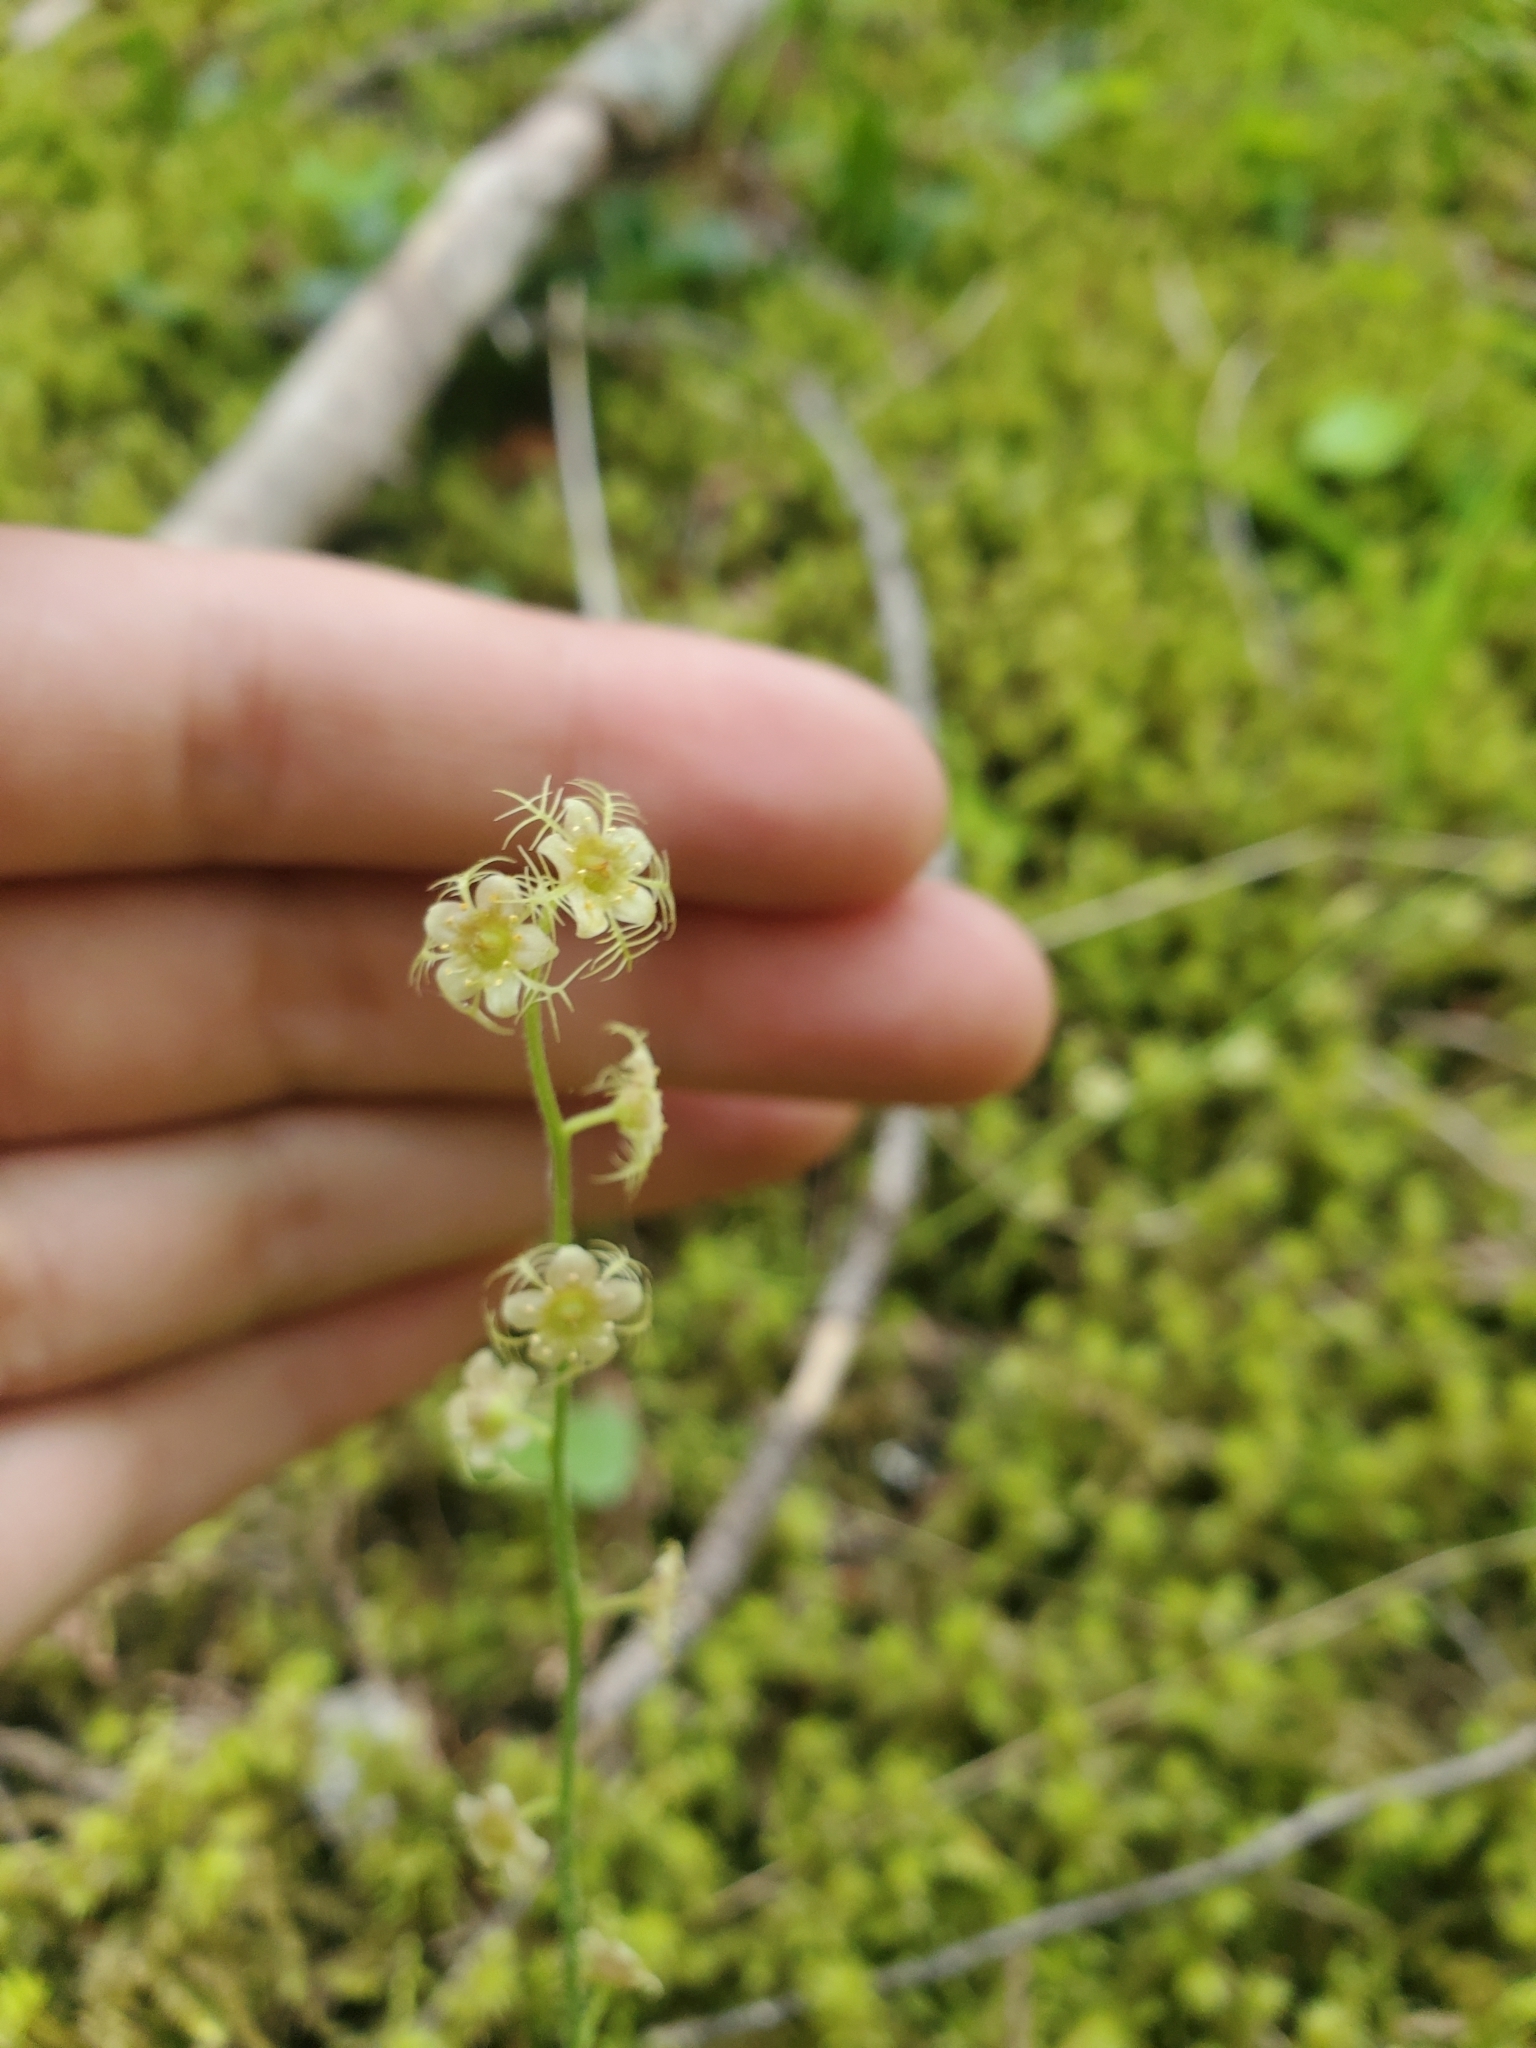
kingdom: Plantae
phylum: Tracheophyta
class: Magnoliopsida
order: Saxifragales
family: Saxifragaceae
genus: Mitella
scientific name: Mitella nuda
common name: Bare-stemmed bishop's-cap
